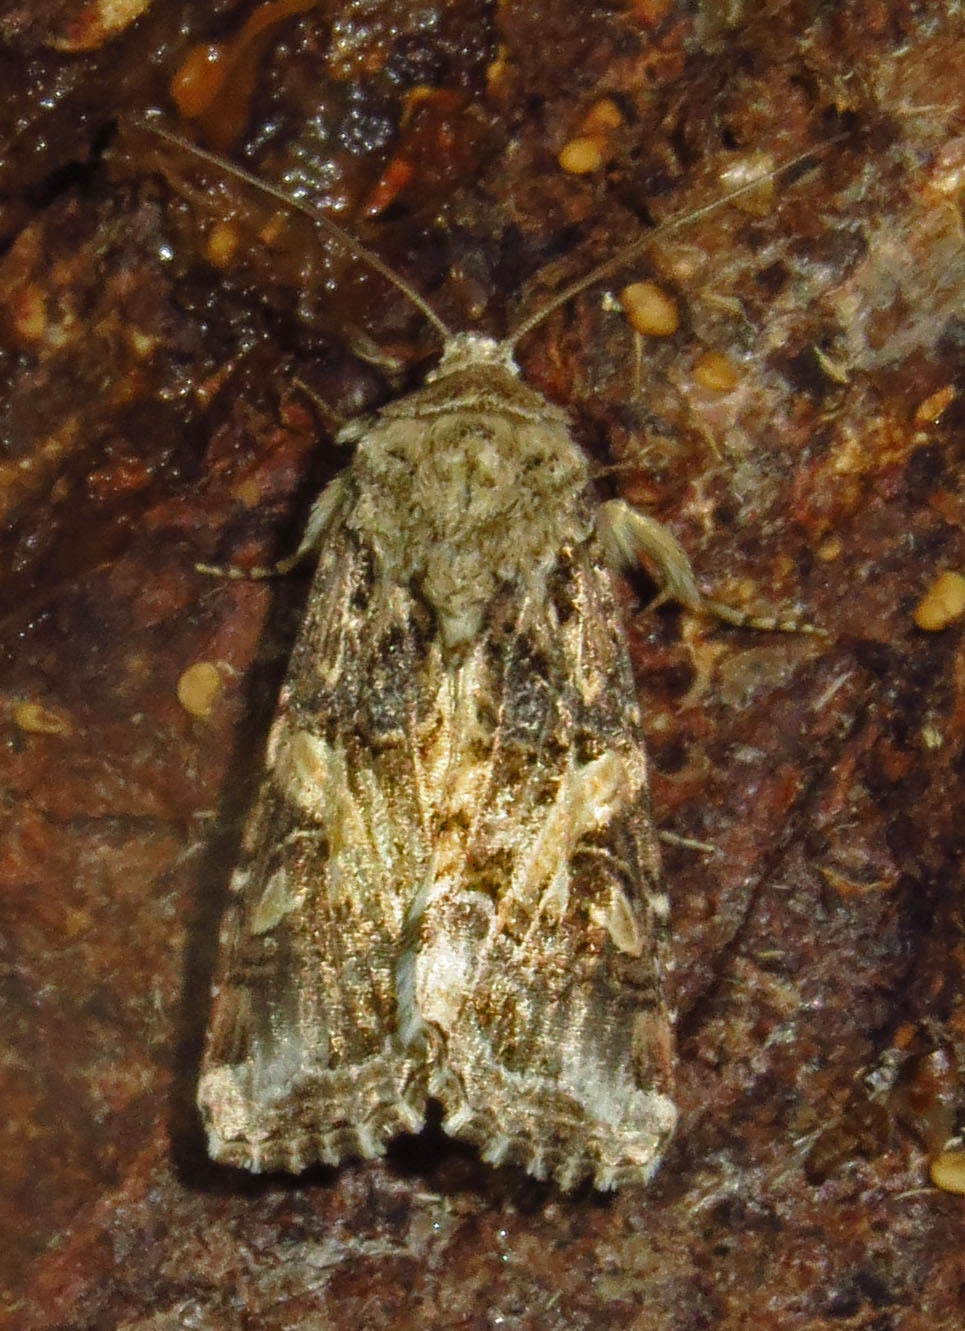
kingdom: Animalia
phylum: Arthropoda
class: Insecta
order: Lepidoptera
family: Noctuidae
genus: Spodoptera
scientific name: Spodoptera ornithogalli
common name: Yellow-striped armyworm
